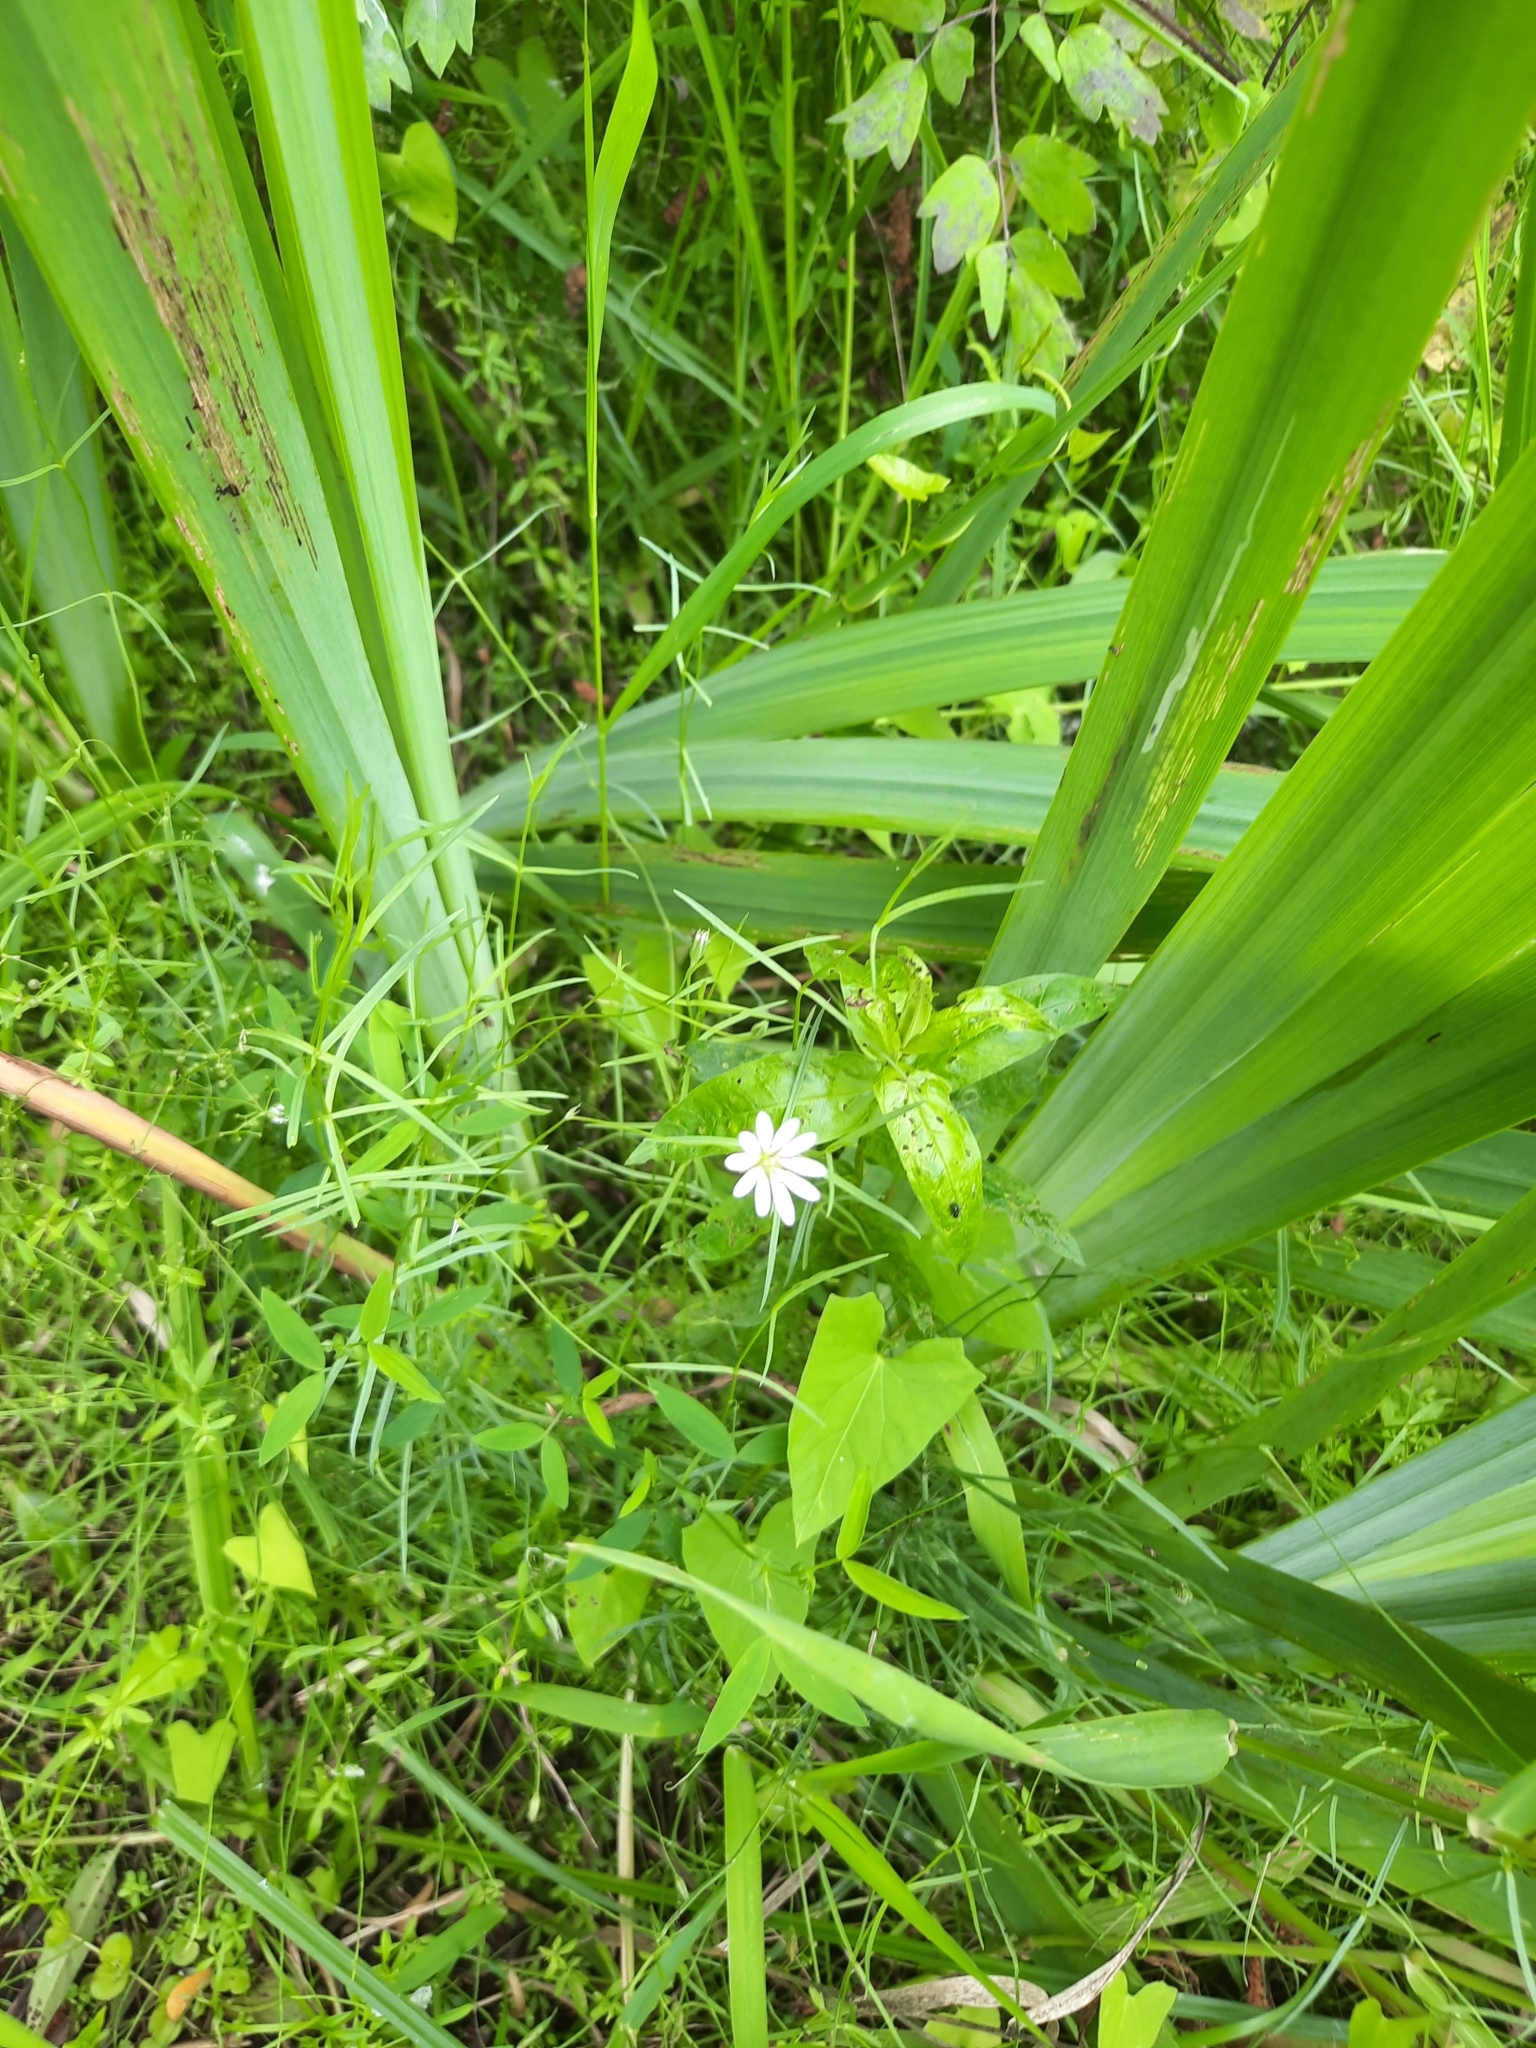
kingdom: Plantae
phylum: Tracheophyta
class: Magnoliopsida
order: Caryophyllales
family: Caryophyllaceae
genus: Stellaria
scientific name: Stellaria palustris
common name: Marsh stitchwort
